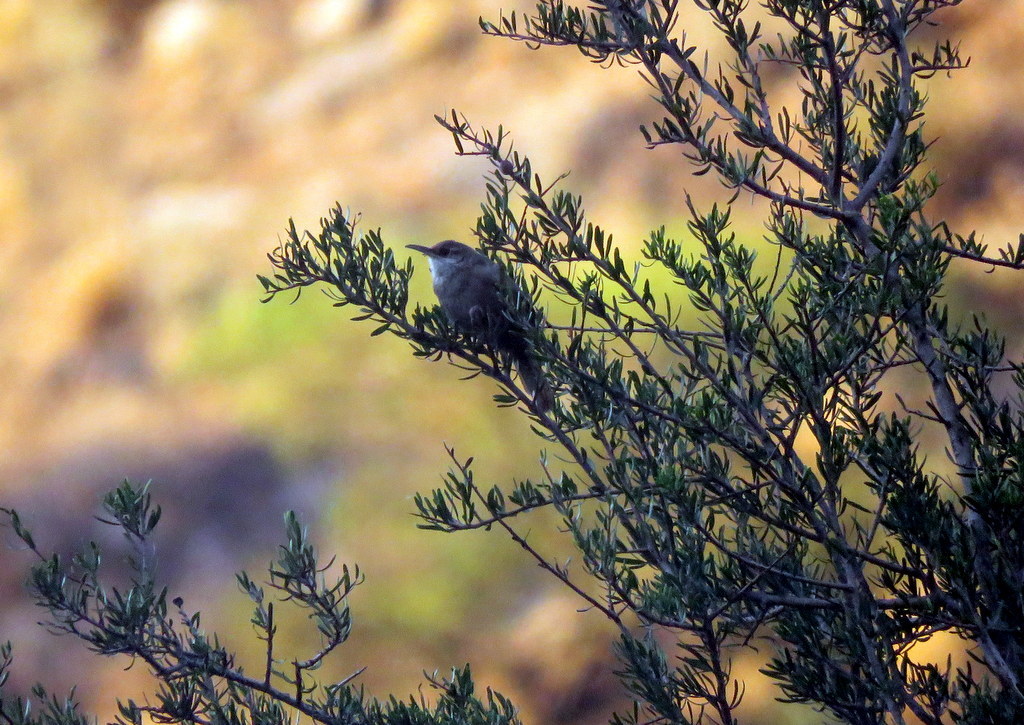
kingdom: Animalia
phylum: Chordata
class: Aves
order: Passeriformes
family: Furnariidae
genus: Upucerthia
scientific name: Upucerthia certhioides
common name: Chaco earthcreeper
